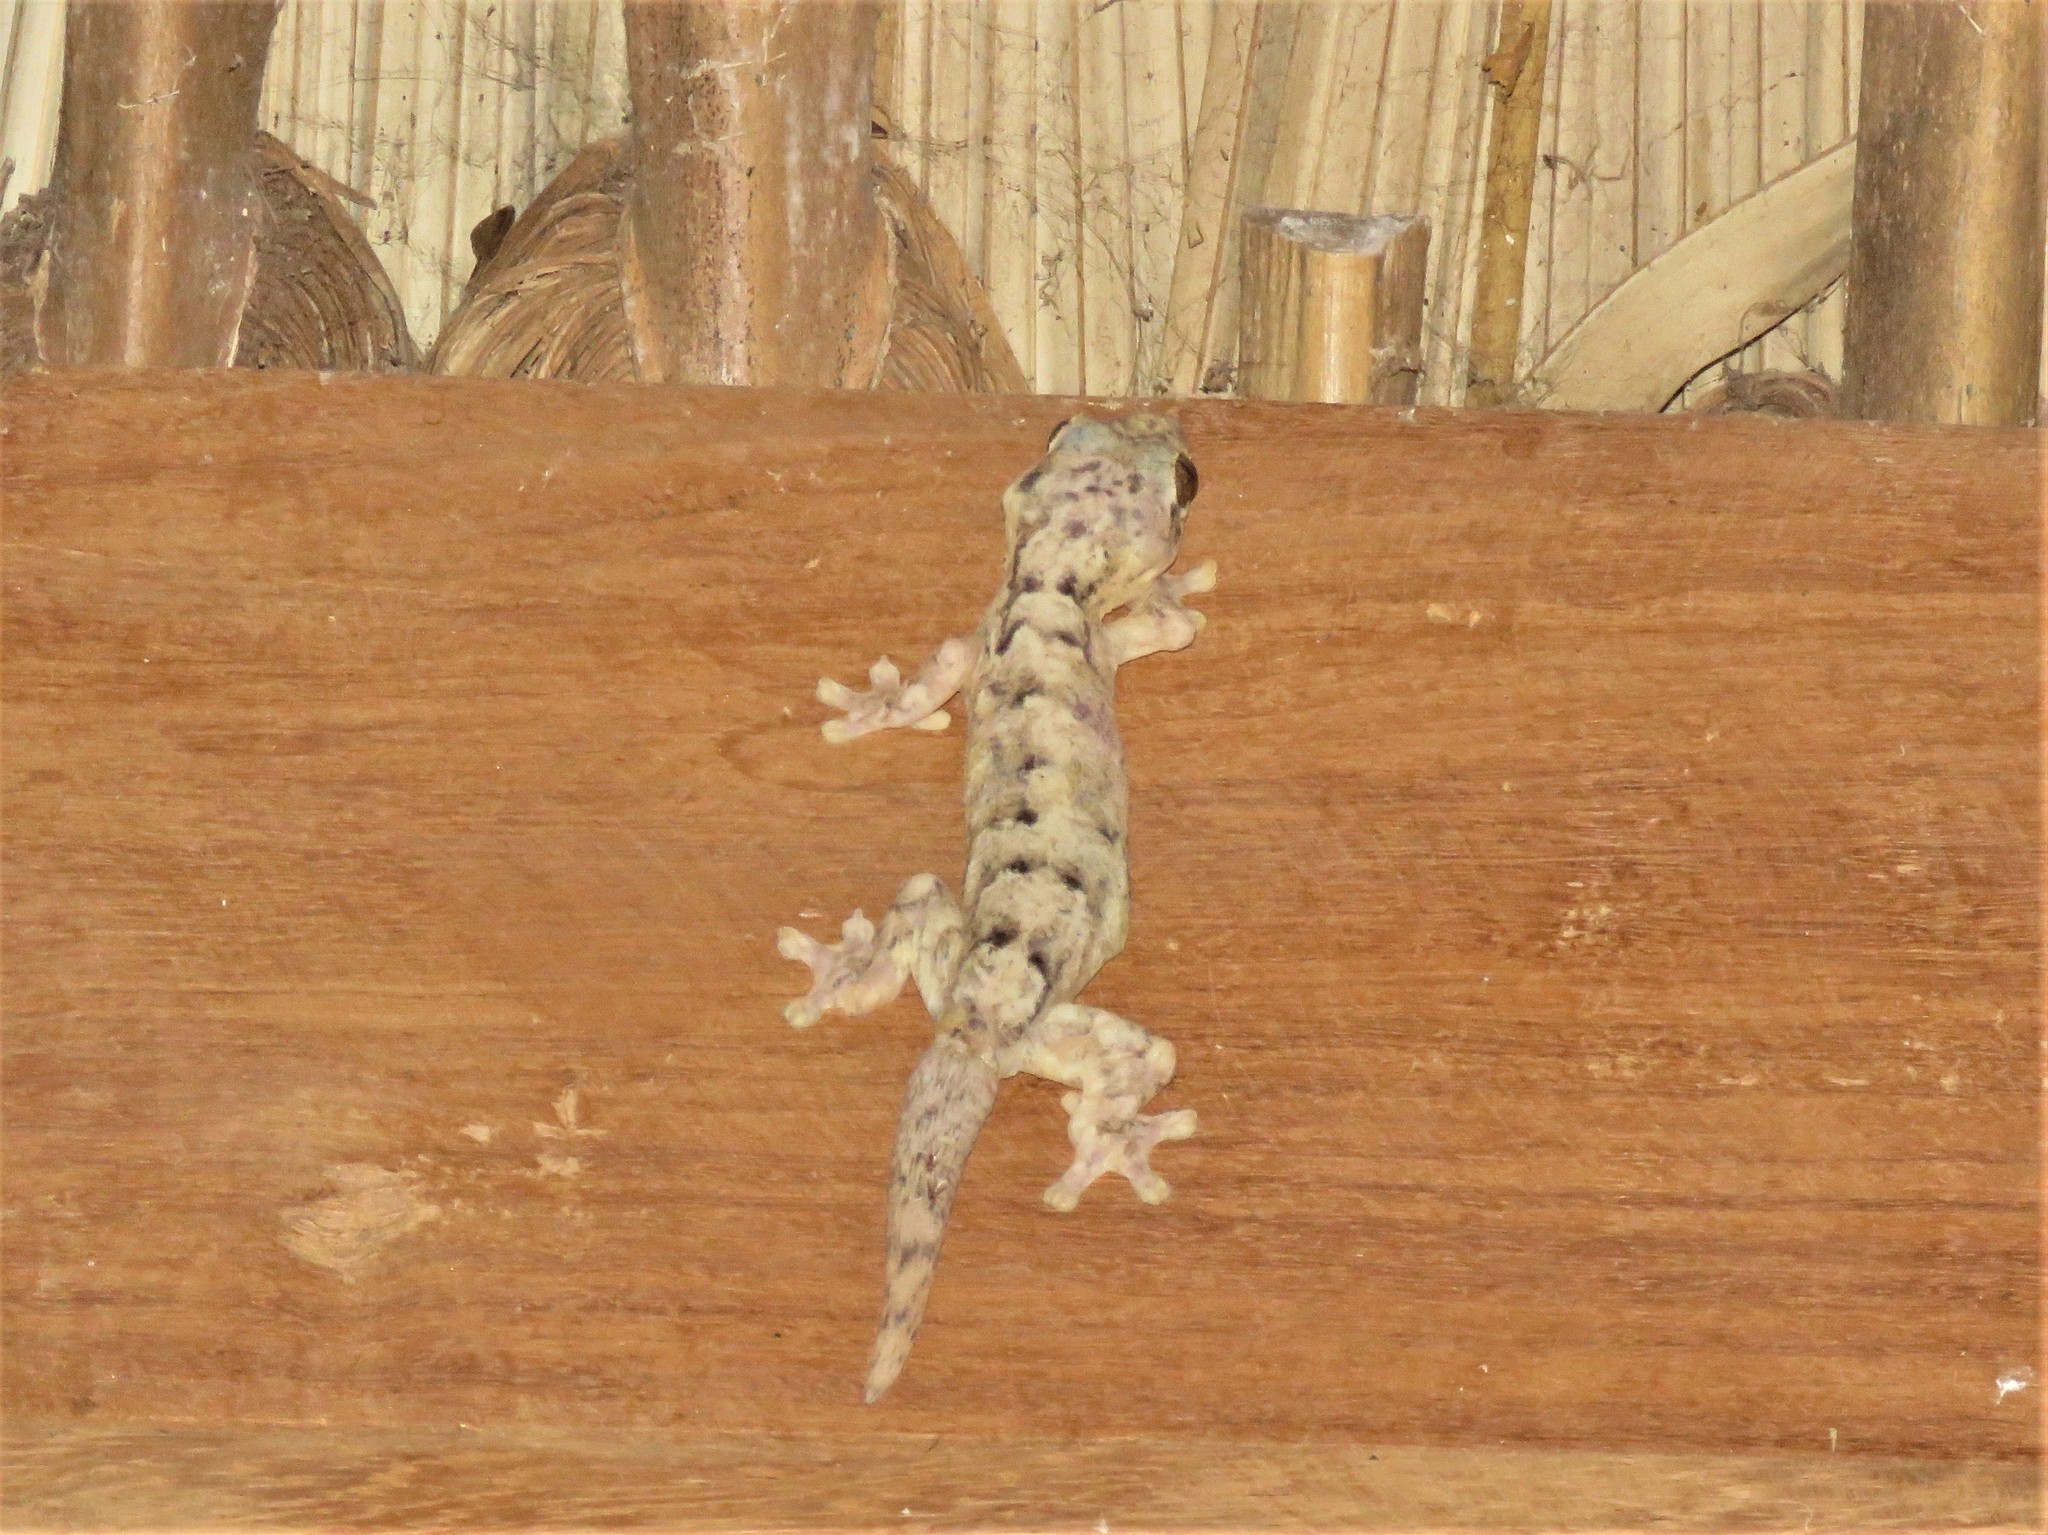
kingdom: Animalia
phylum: Chordata
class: Squamata
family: Phyllodactylidae
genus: Thecadactylus
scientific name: Thecadactylus rapicauda
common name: Turnip-tailed gecko
